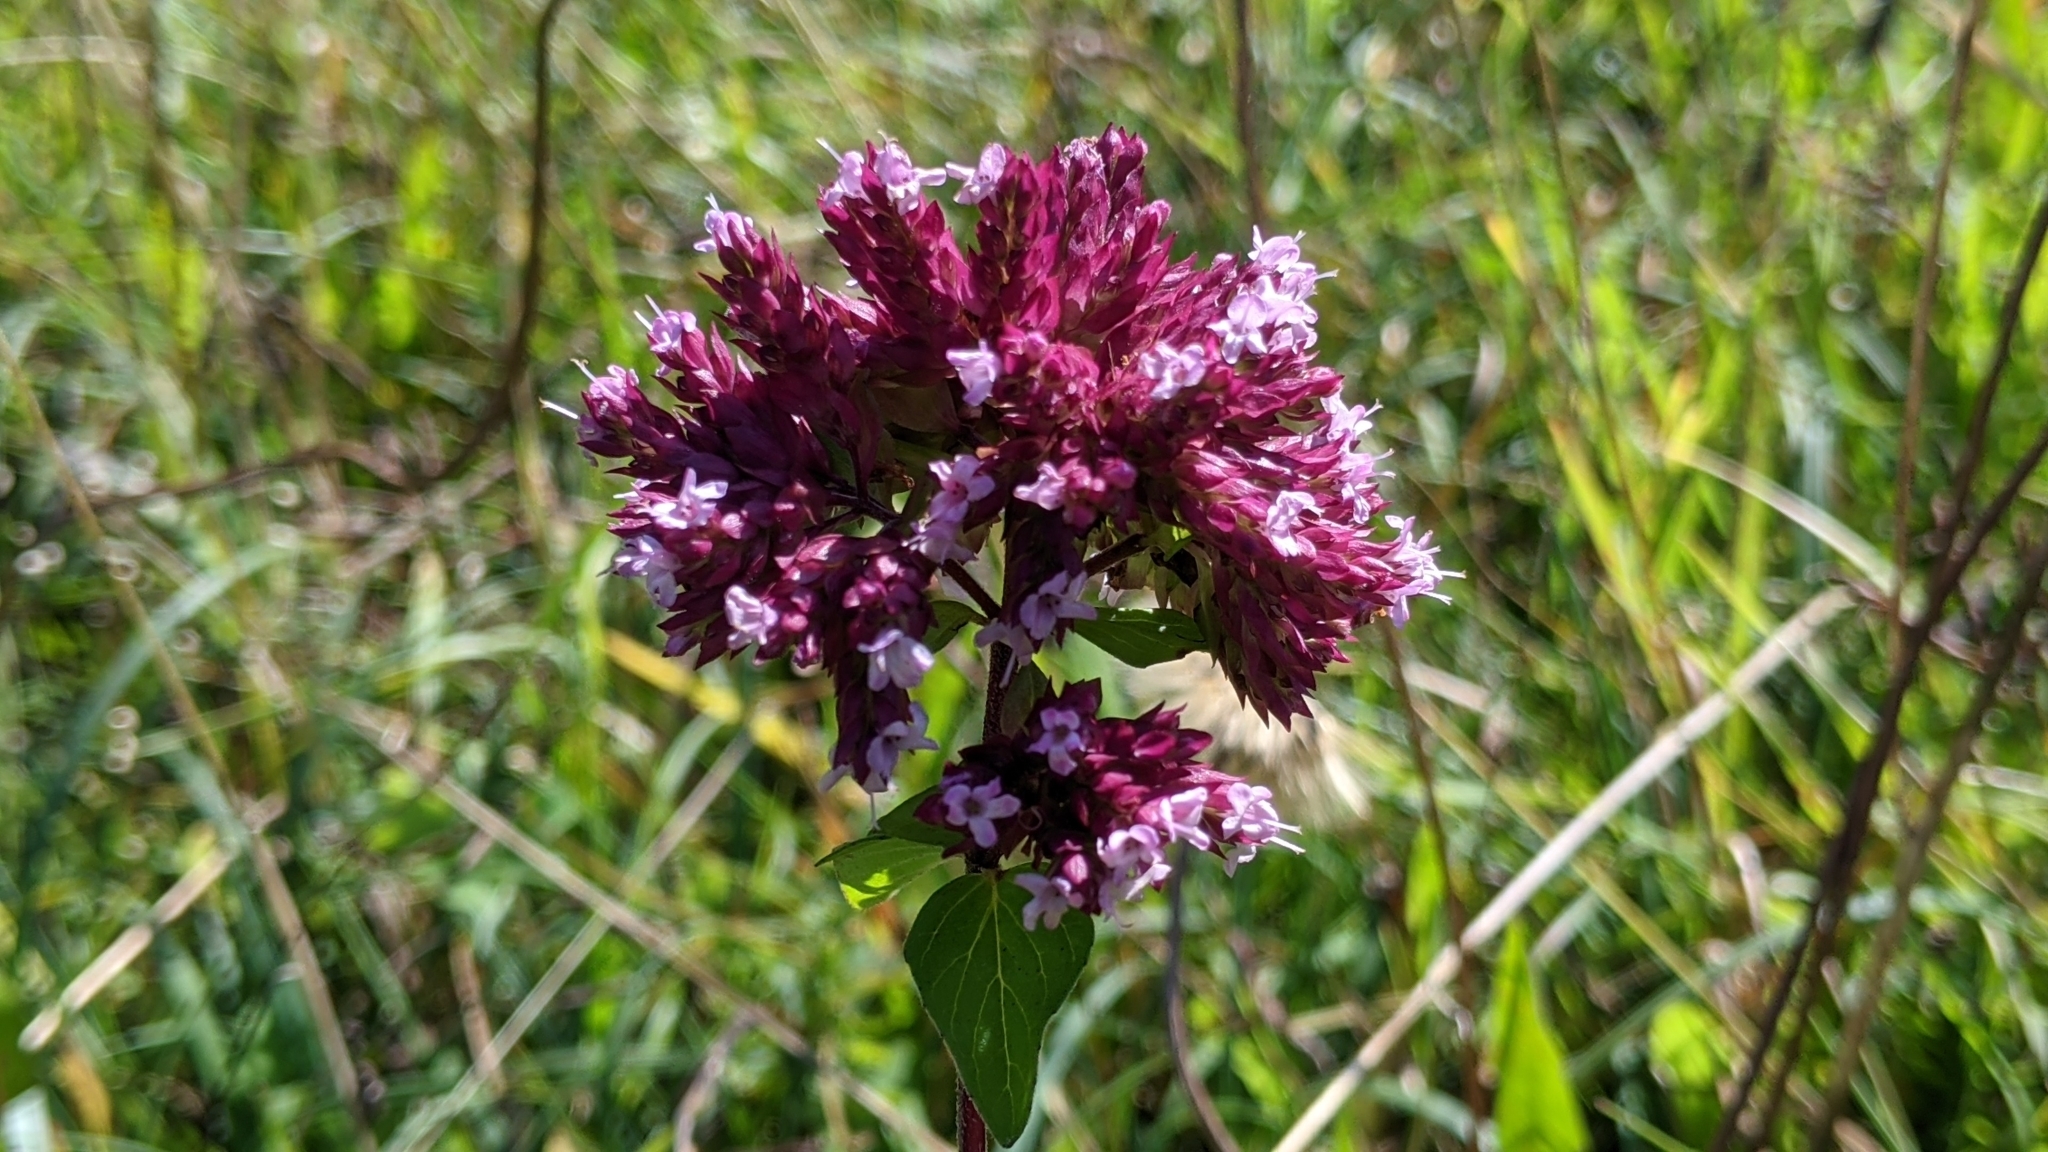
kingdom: Plantae
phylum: Tracheophyta
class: Magnoliopsida
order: Lamiales
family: Lamiaceae
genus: Origanum
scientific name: Origanum vulgare
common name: Wild marjoram
